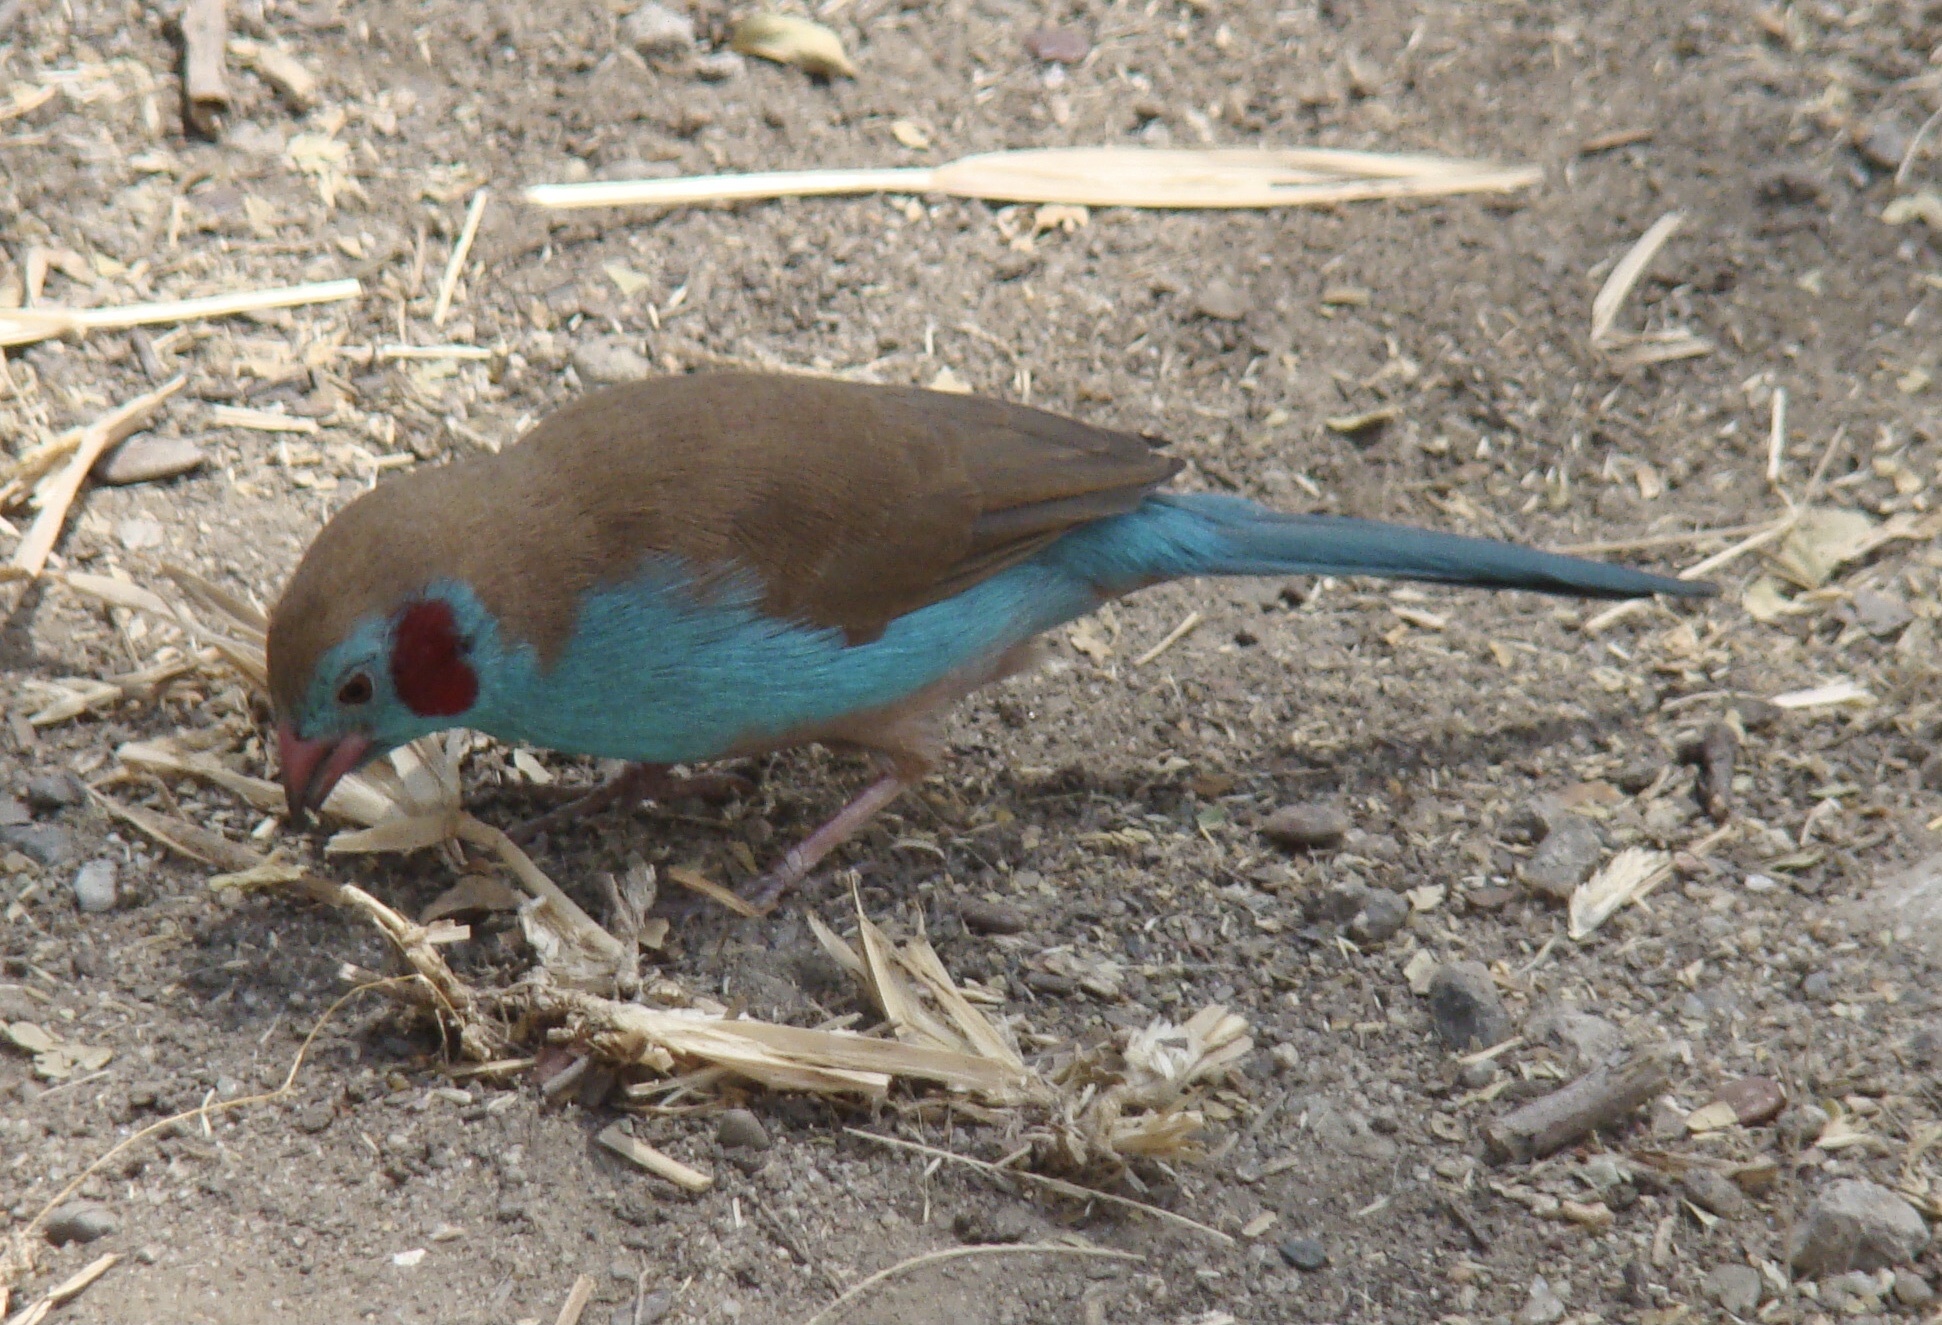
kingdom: Animalia
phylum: Chordata
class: Aves
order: Passeriformes
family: Estrildidae
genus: Uraeginthus
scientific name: Uraeginthus bengalus
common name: Red-cheeked cordon-bleu
